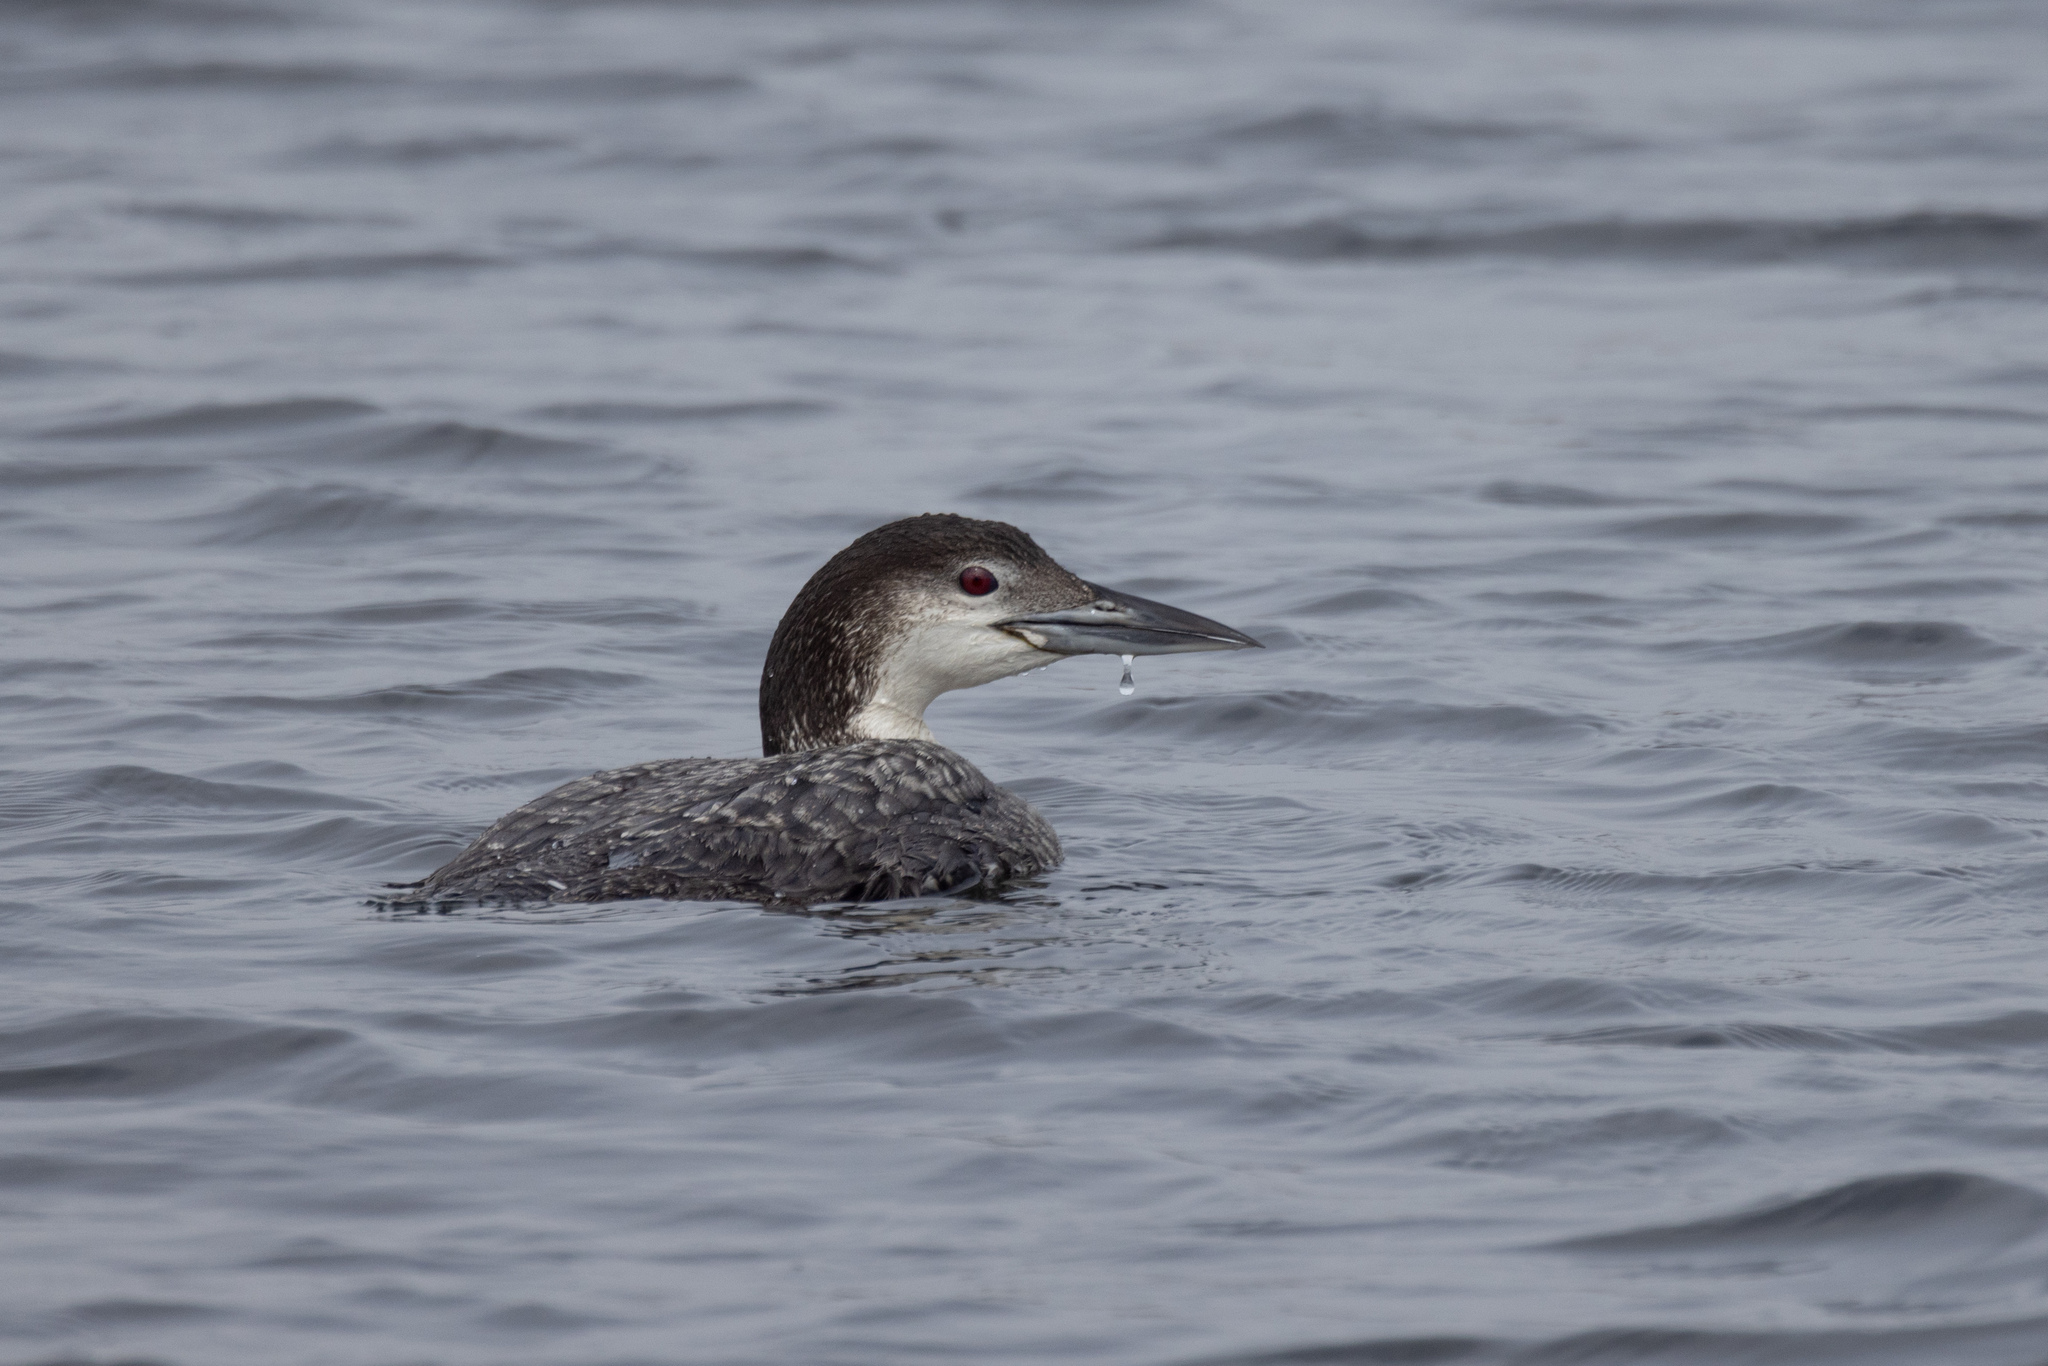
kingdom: Animalia
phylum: Chordata
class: Aves
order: Gaviiformes
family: Gaviidae
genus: Gavia
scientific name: Gavia immer
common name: Common loon
